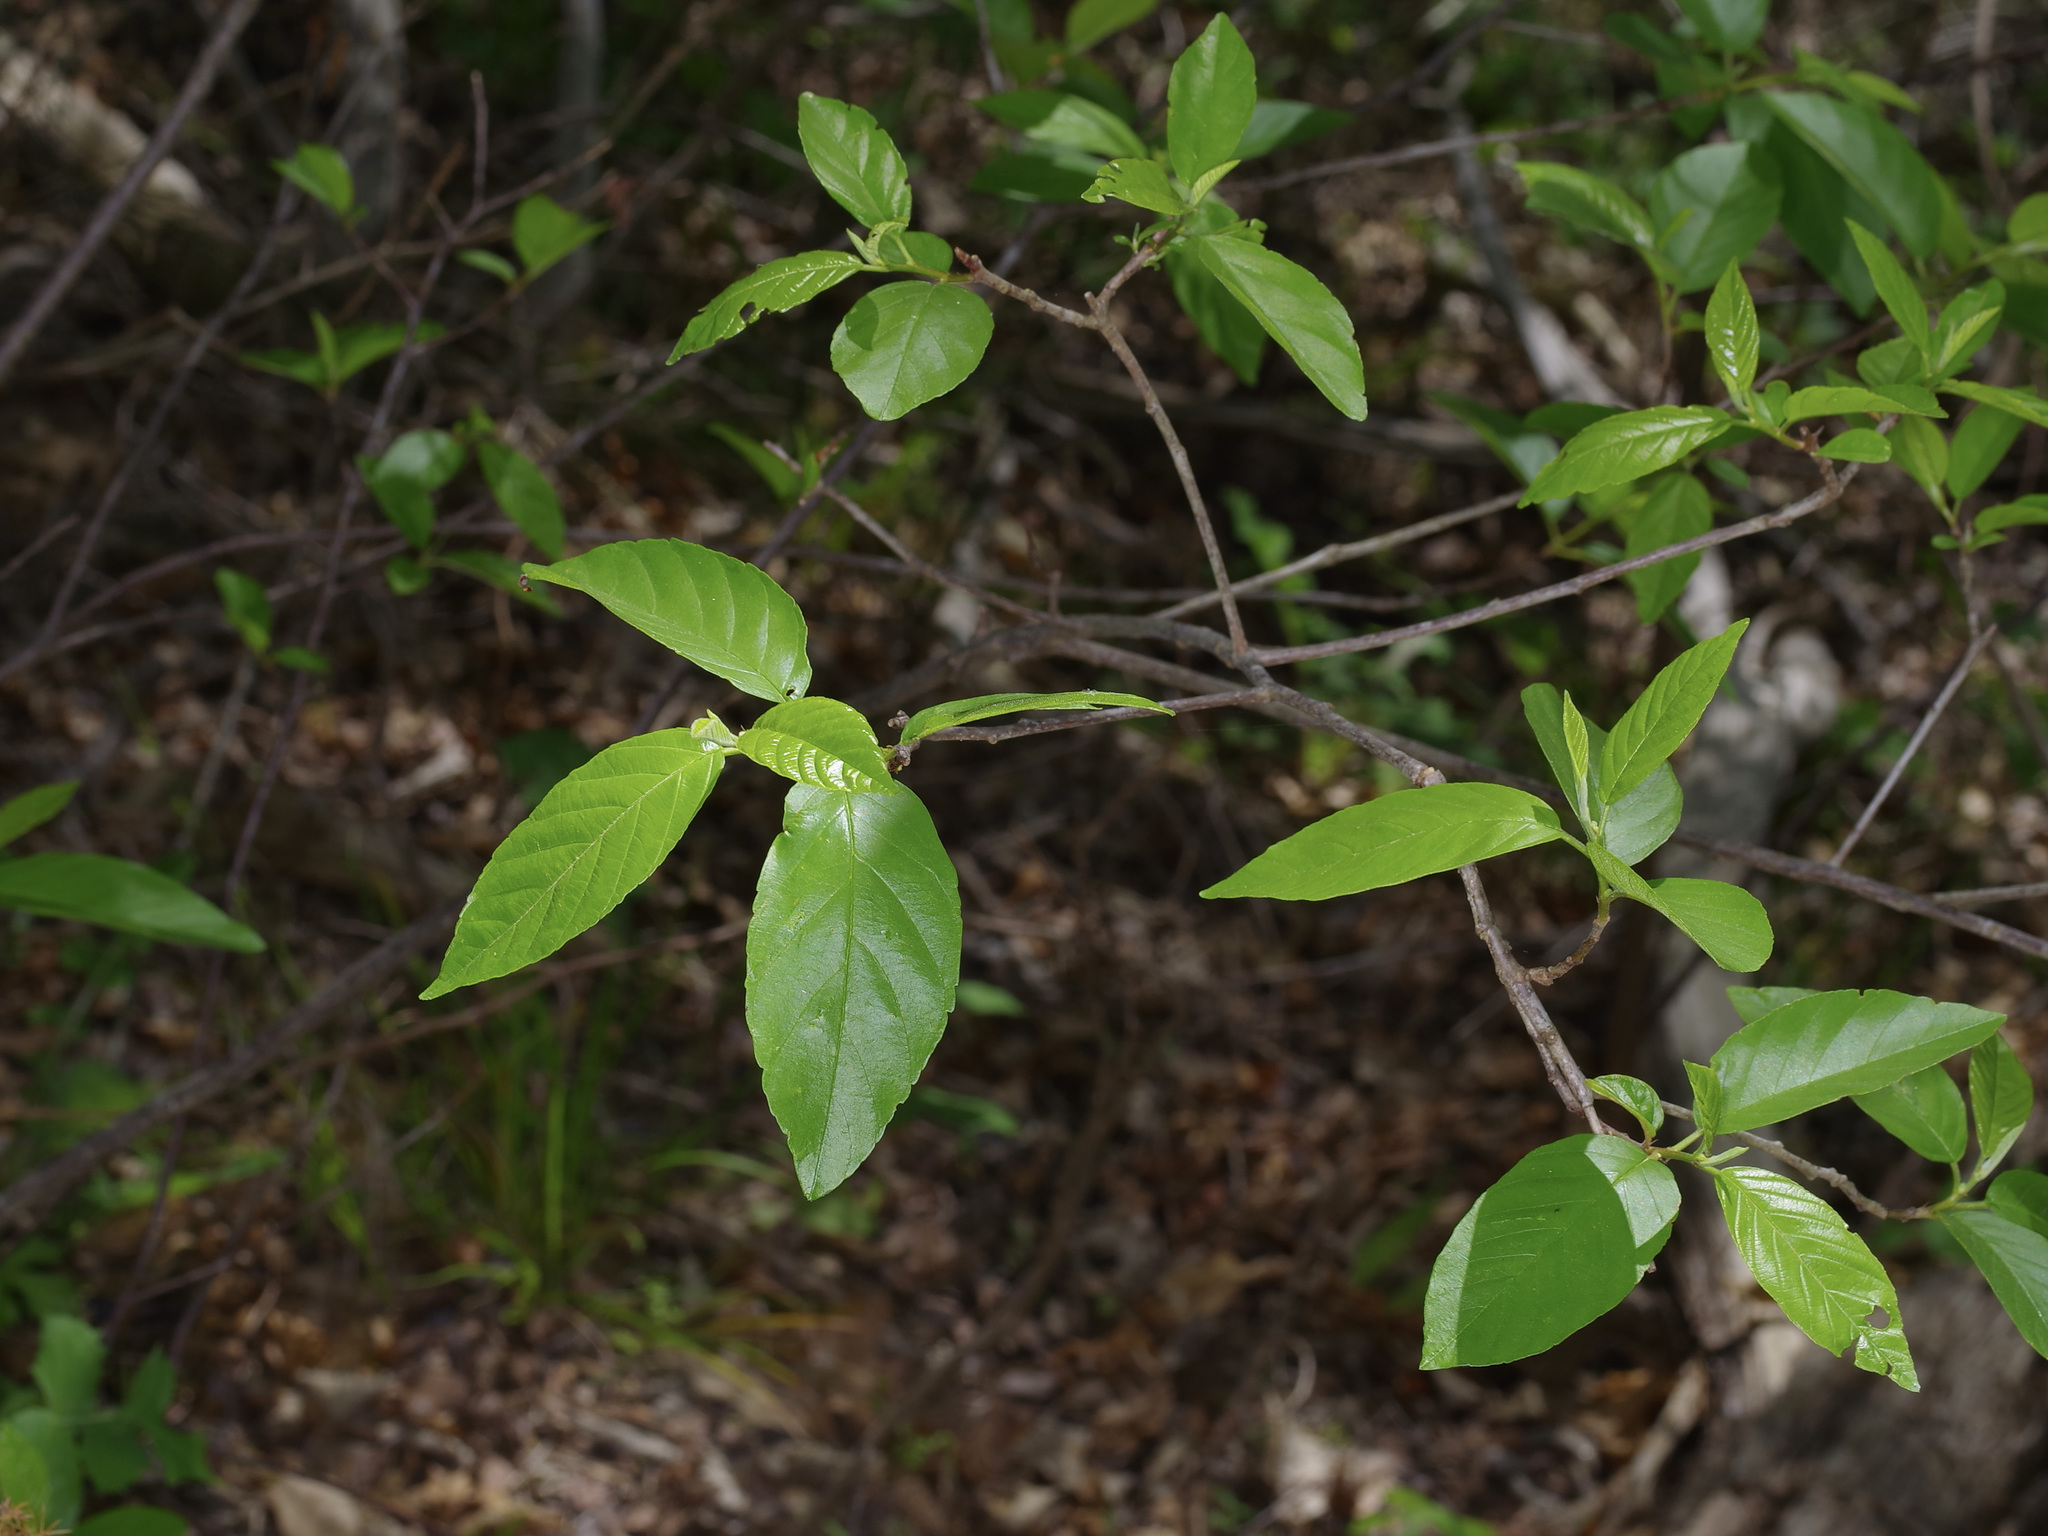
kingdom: Plantae
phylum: Tracheophyta
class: Magnoliopsida
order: Rosales
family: Rhamnaceae
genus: Frangula
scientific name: Frangula caroliniana
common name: Carolina buckthorn
